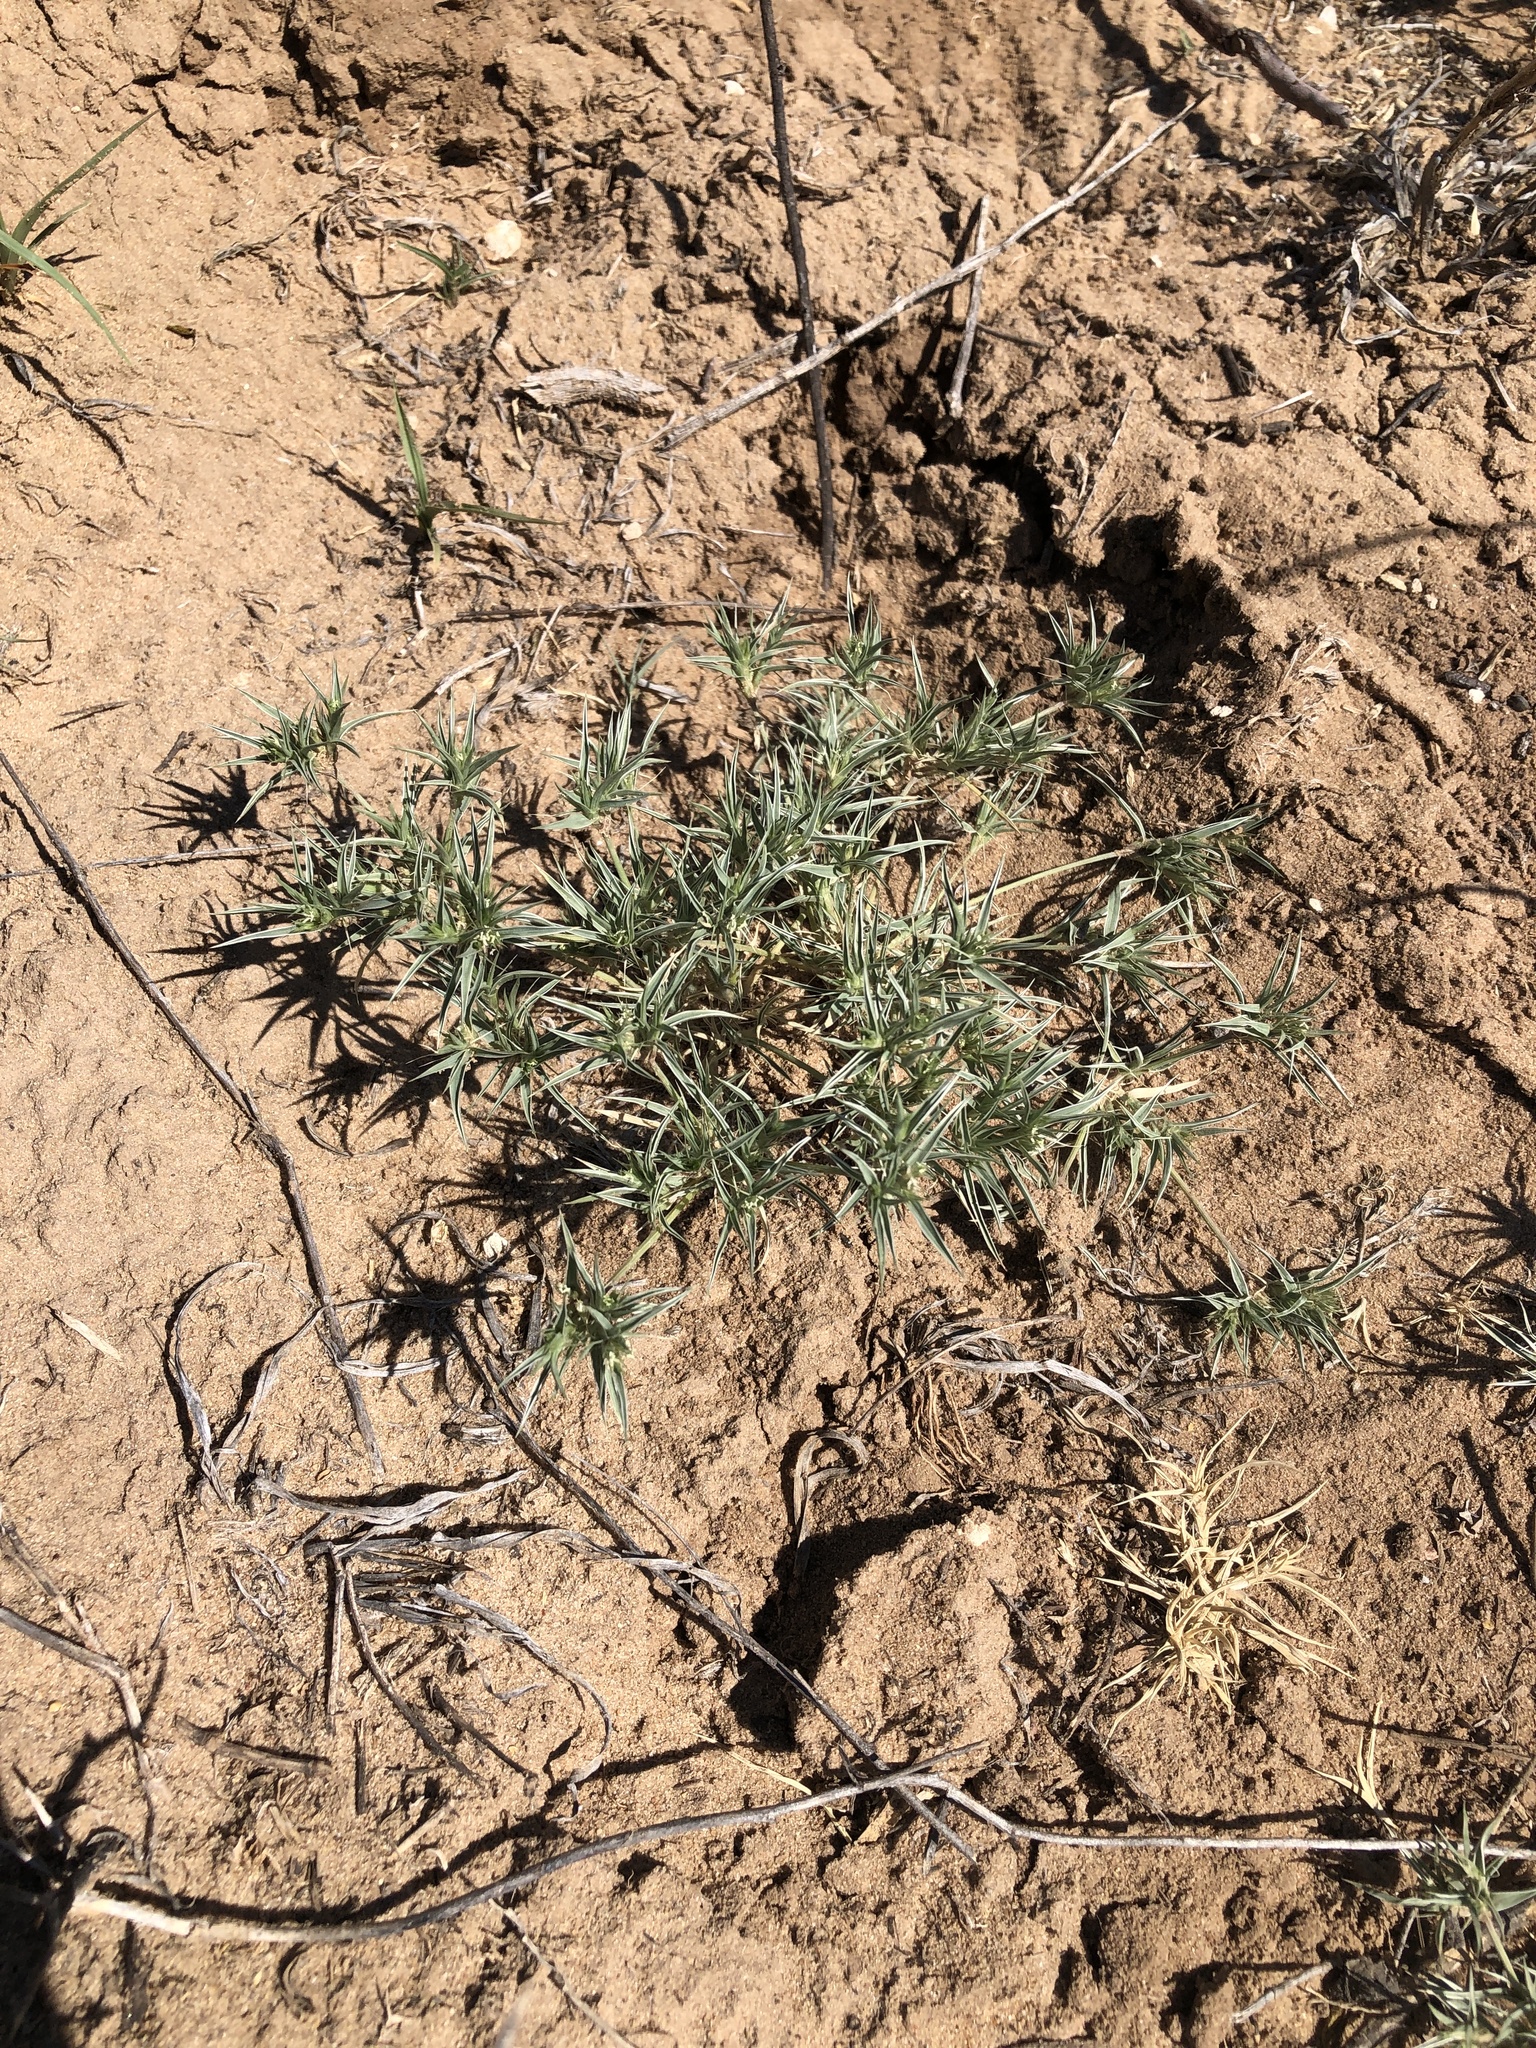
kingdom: Plantae
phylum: Tracheophyta
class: Liliopsida
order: Poales
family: Poaceae
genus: Munroa
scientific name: Munroa squarrosa
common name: False buffalo grass
